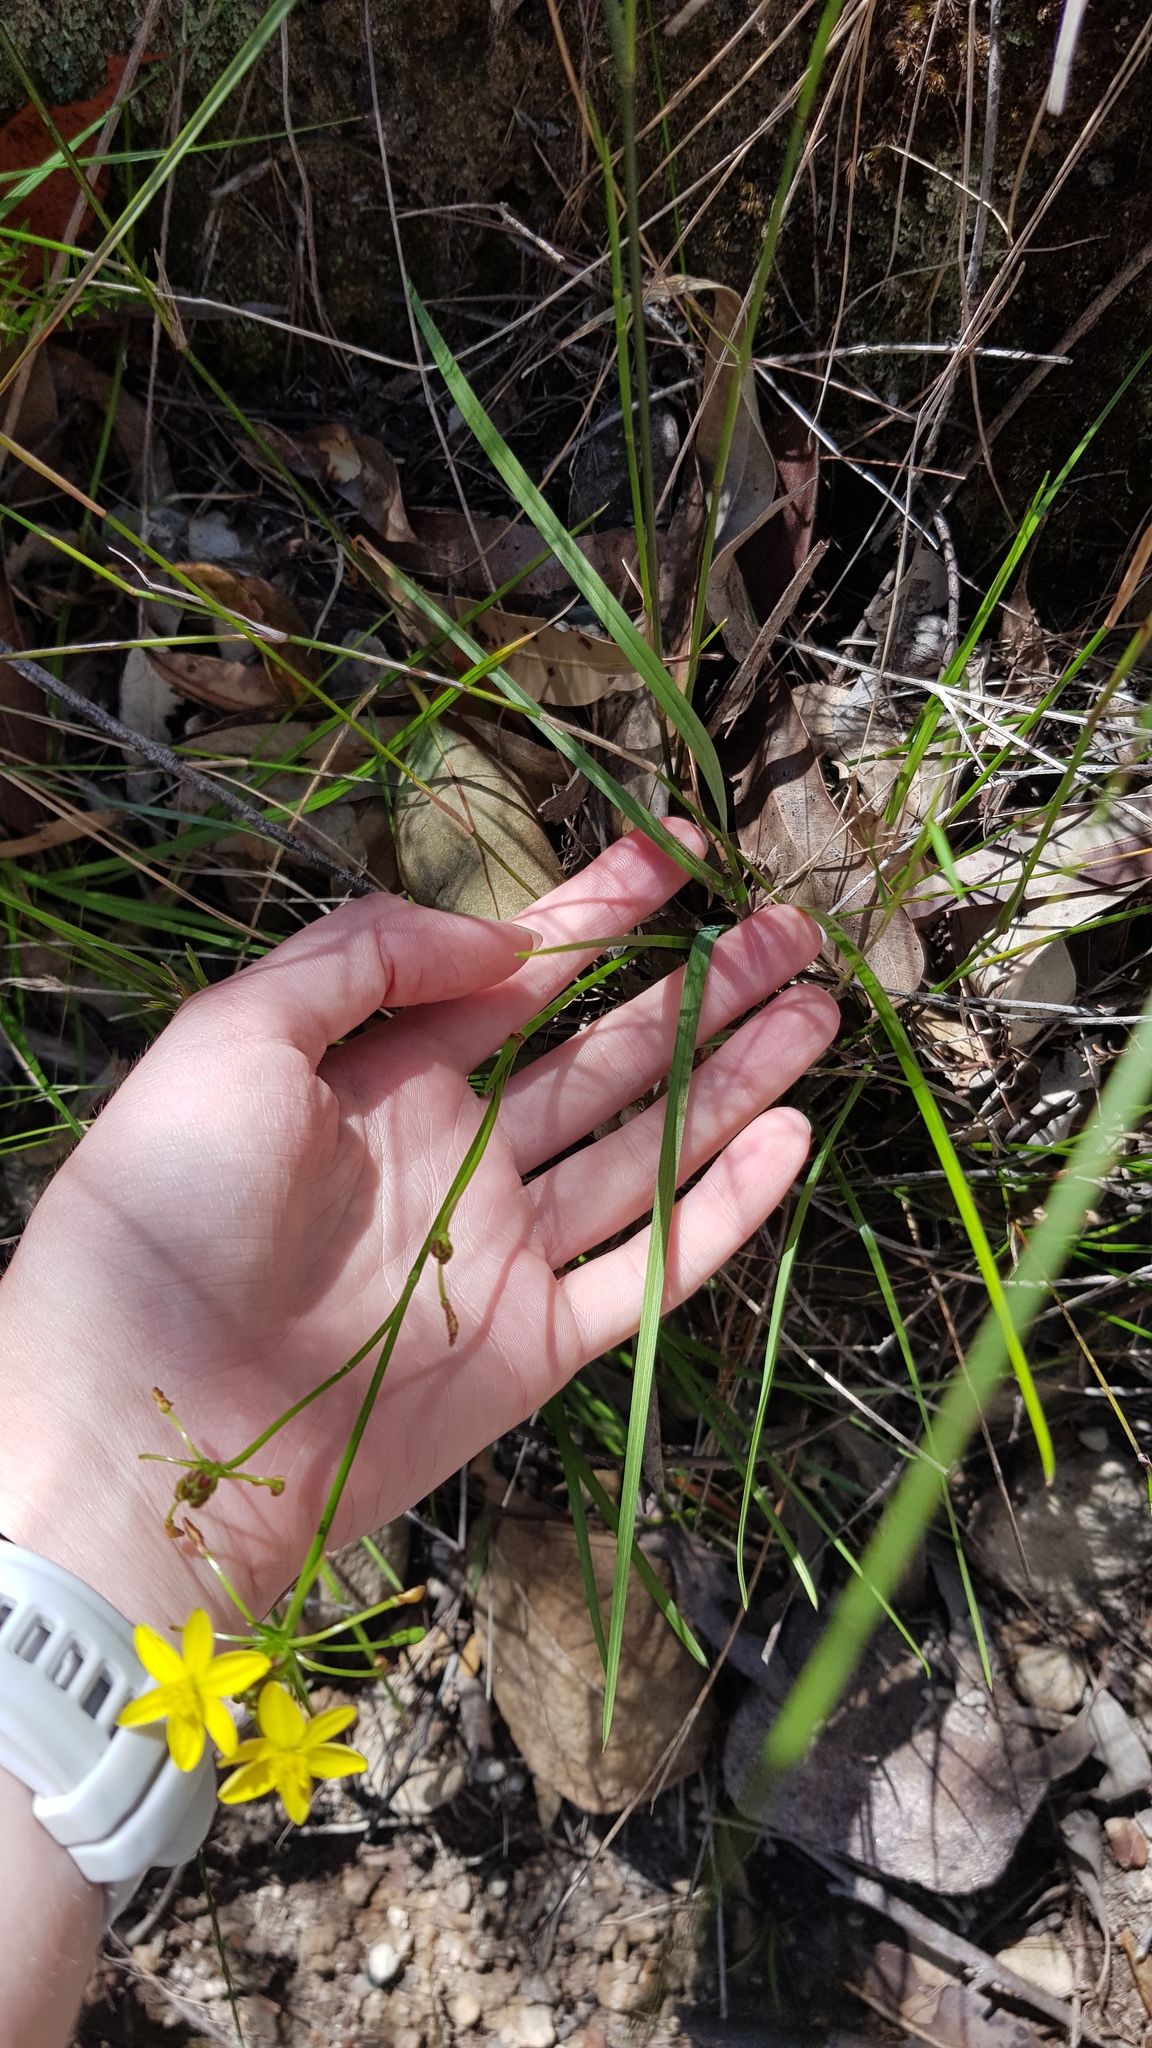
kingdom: Plantae
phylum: Tracheophyta
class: Liliopsida
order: Asparagales
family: Asphodelaceae
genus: Tricoryne
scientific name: Tricoryne simplex
